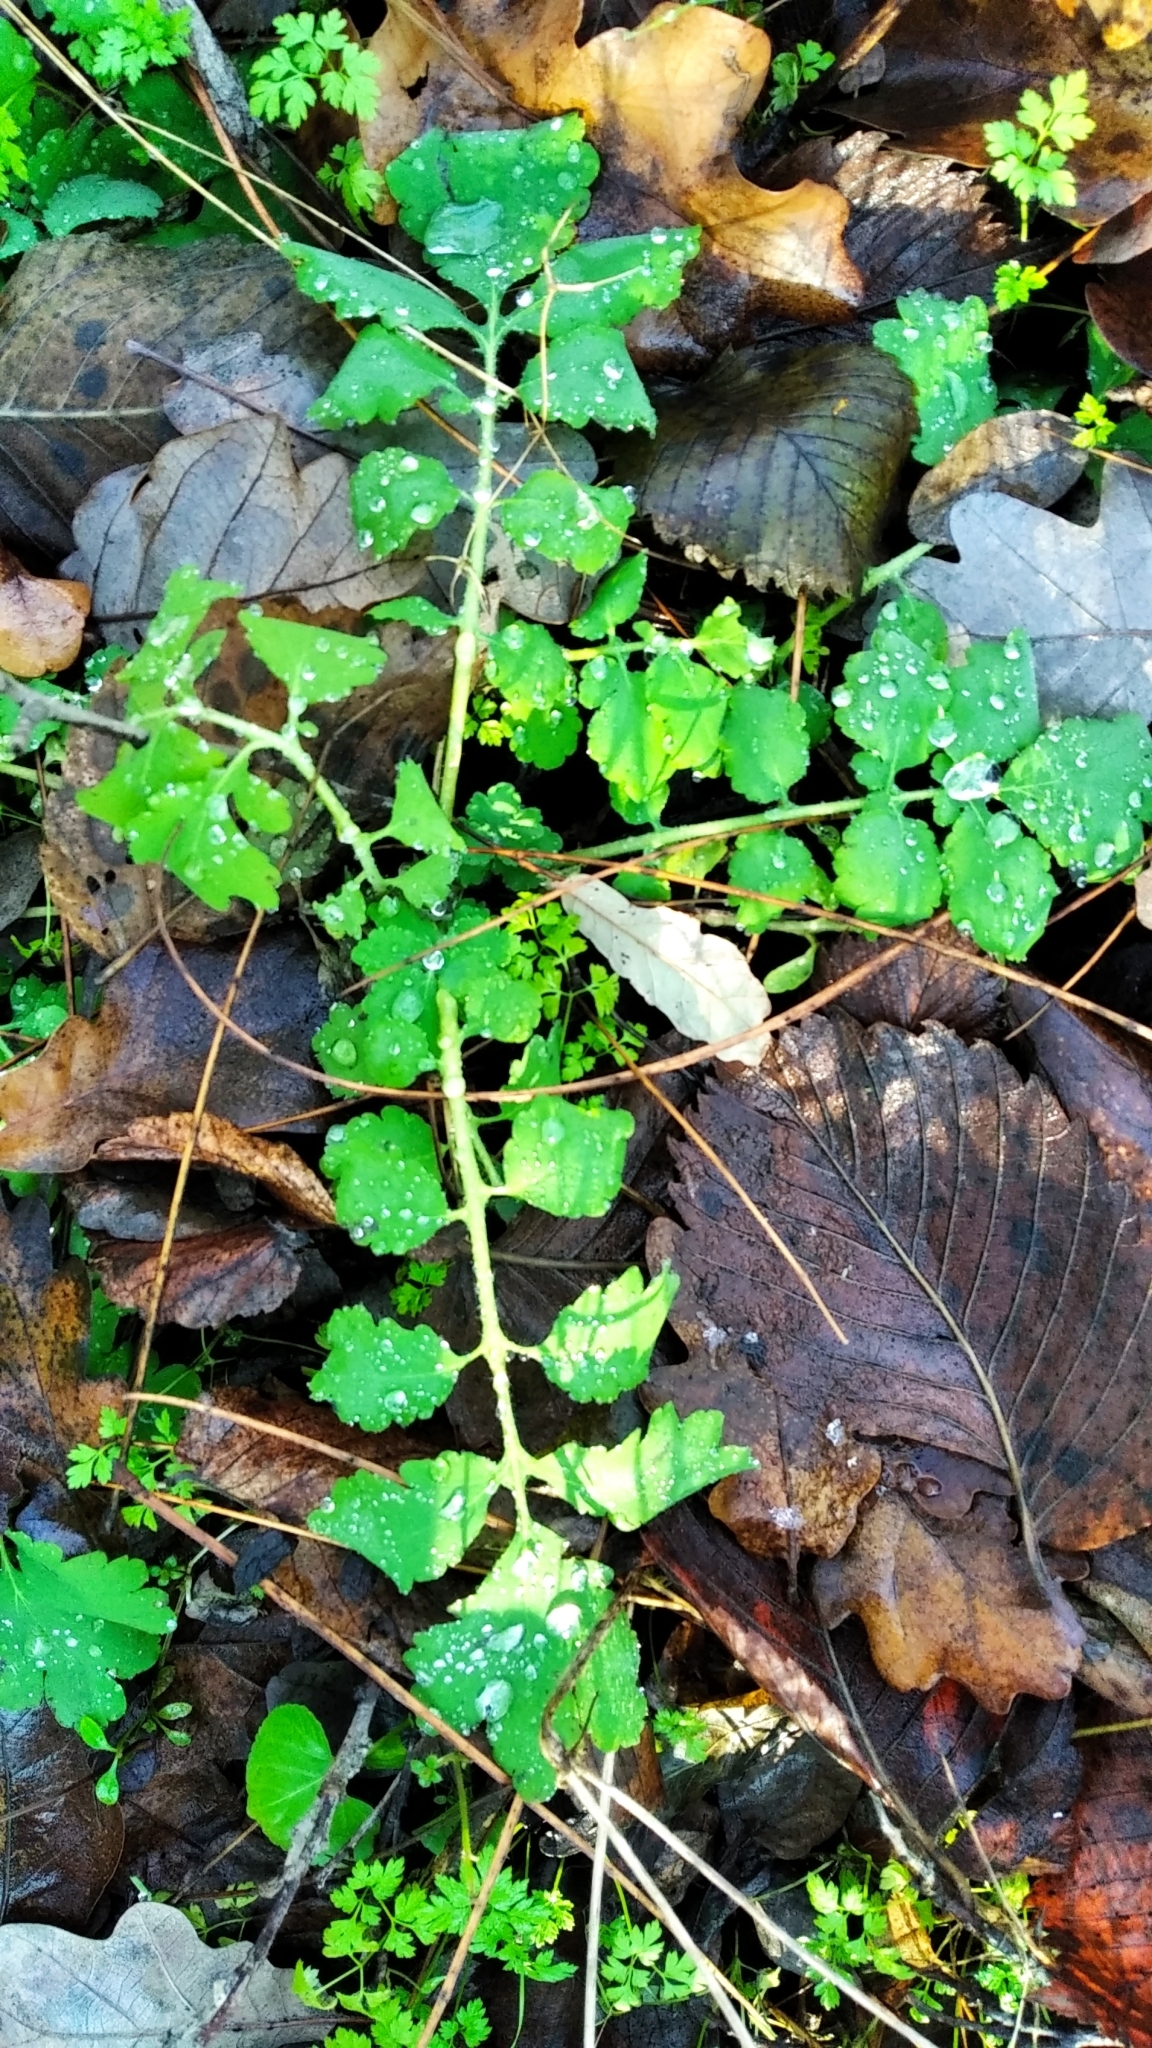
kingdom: Plantae
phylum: Tracheophyta
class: Magnoliopsida
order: Ranunculales
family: Papaveraceae
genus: Chelidonium
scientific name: Chelidonium majus
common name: Greater celandine
